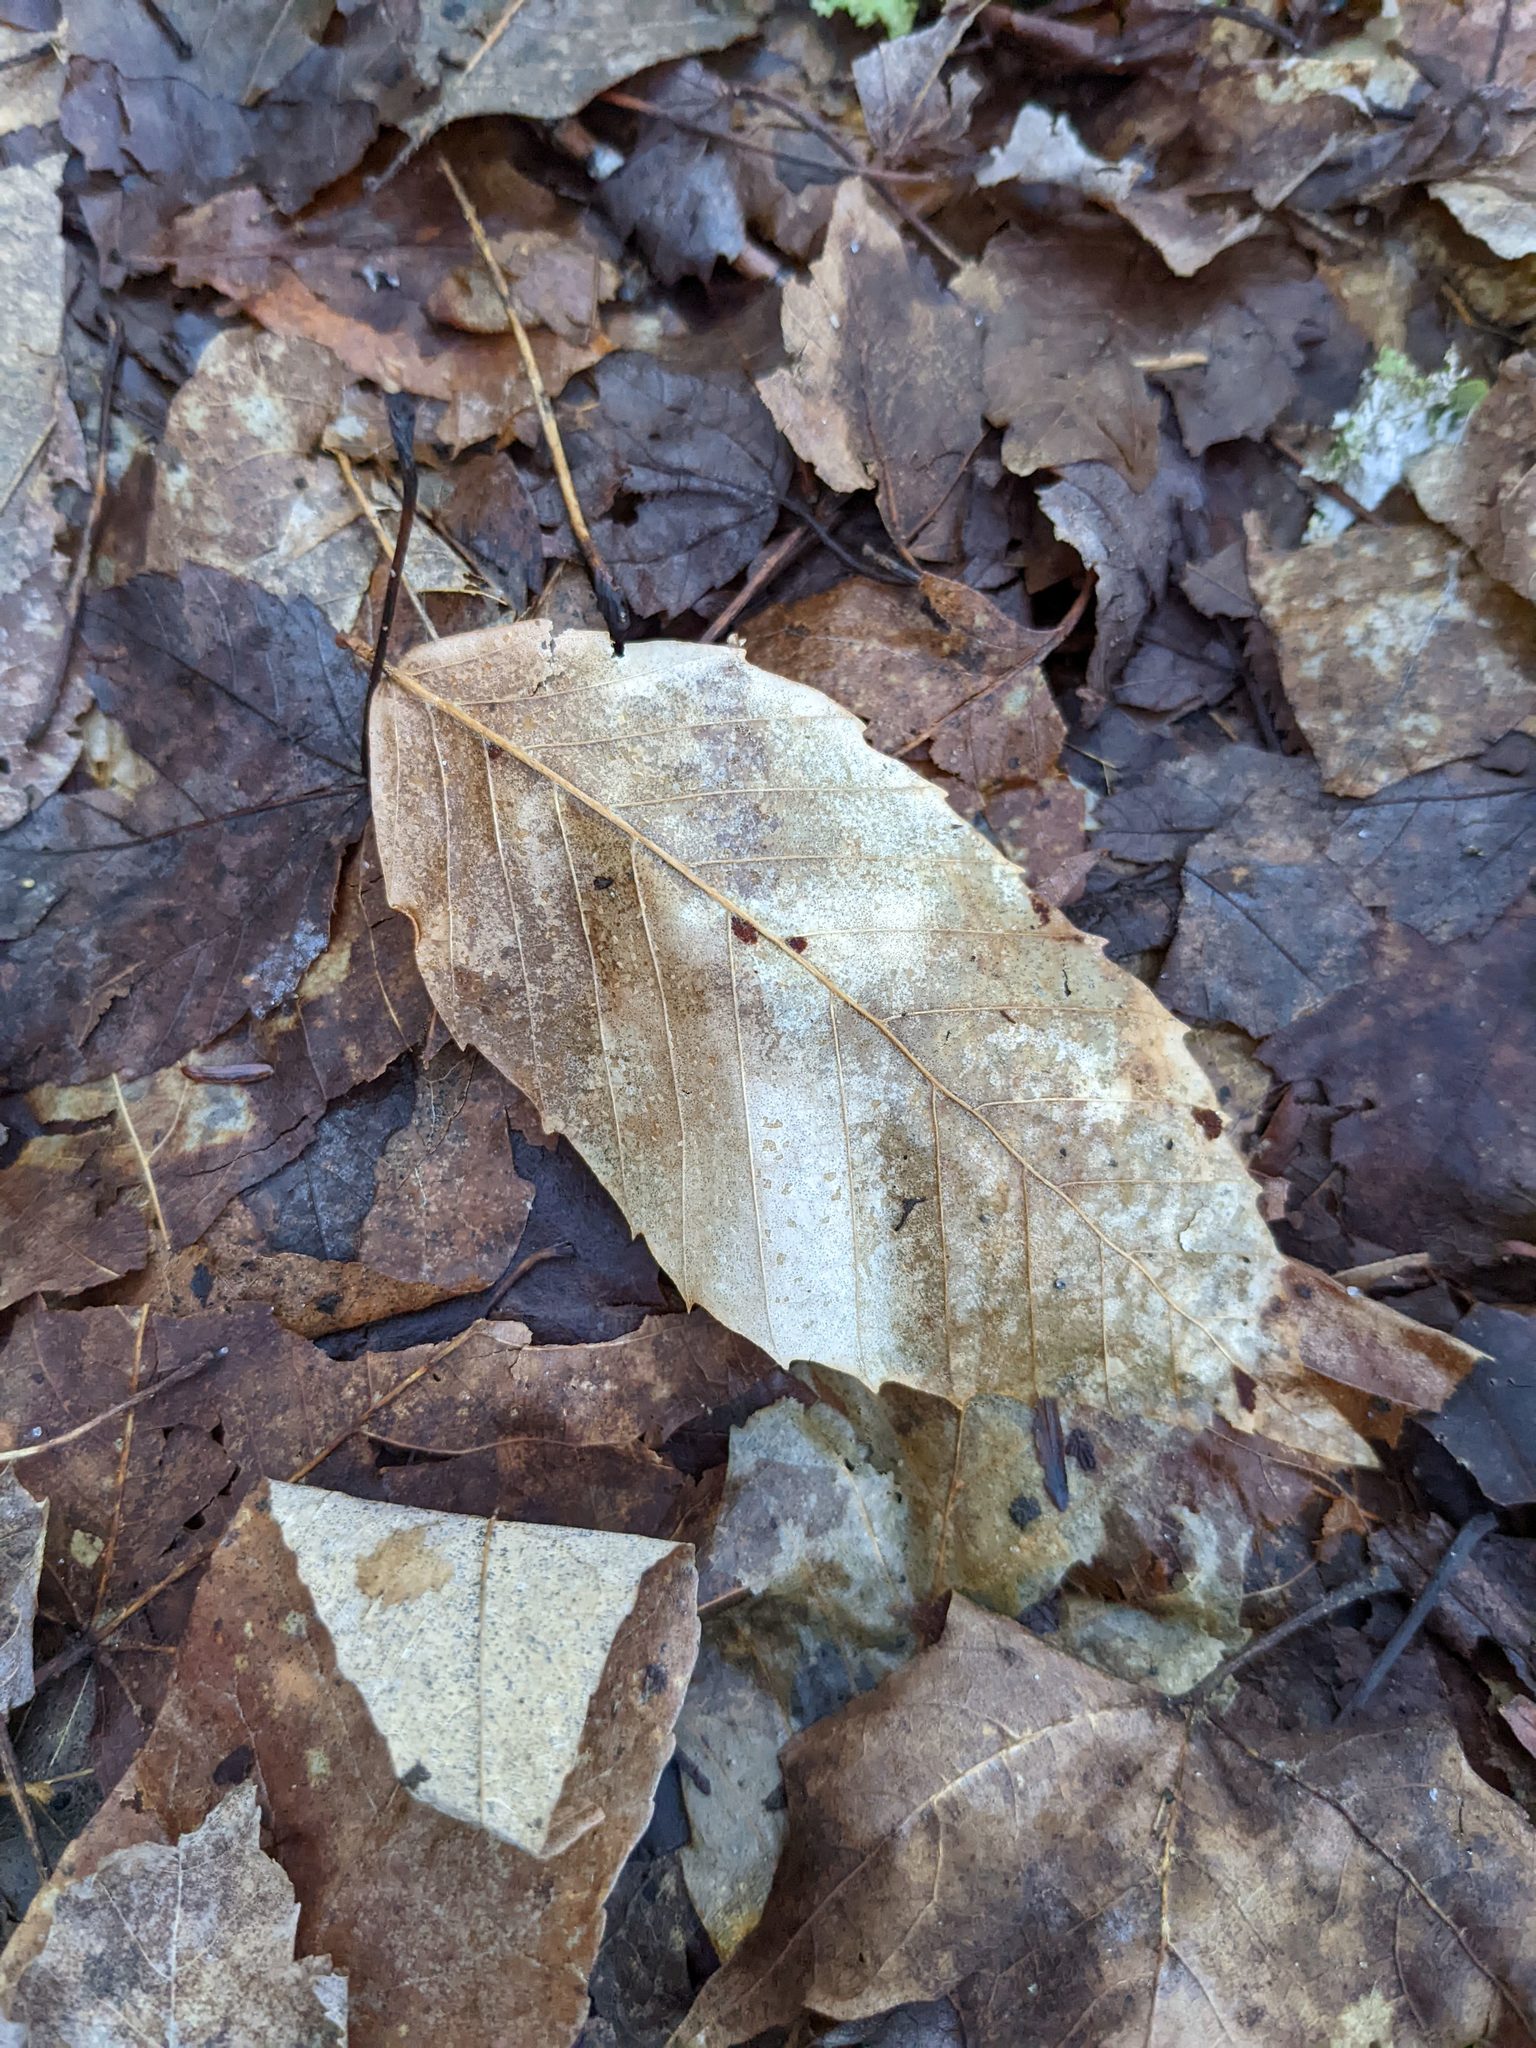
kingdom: Plantae
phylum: Tracheophyta
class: Magnoliopsida
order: Fagales
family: Fagaceae
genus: Fagus
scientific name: Fagus grandifolia
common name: American beech
